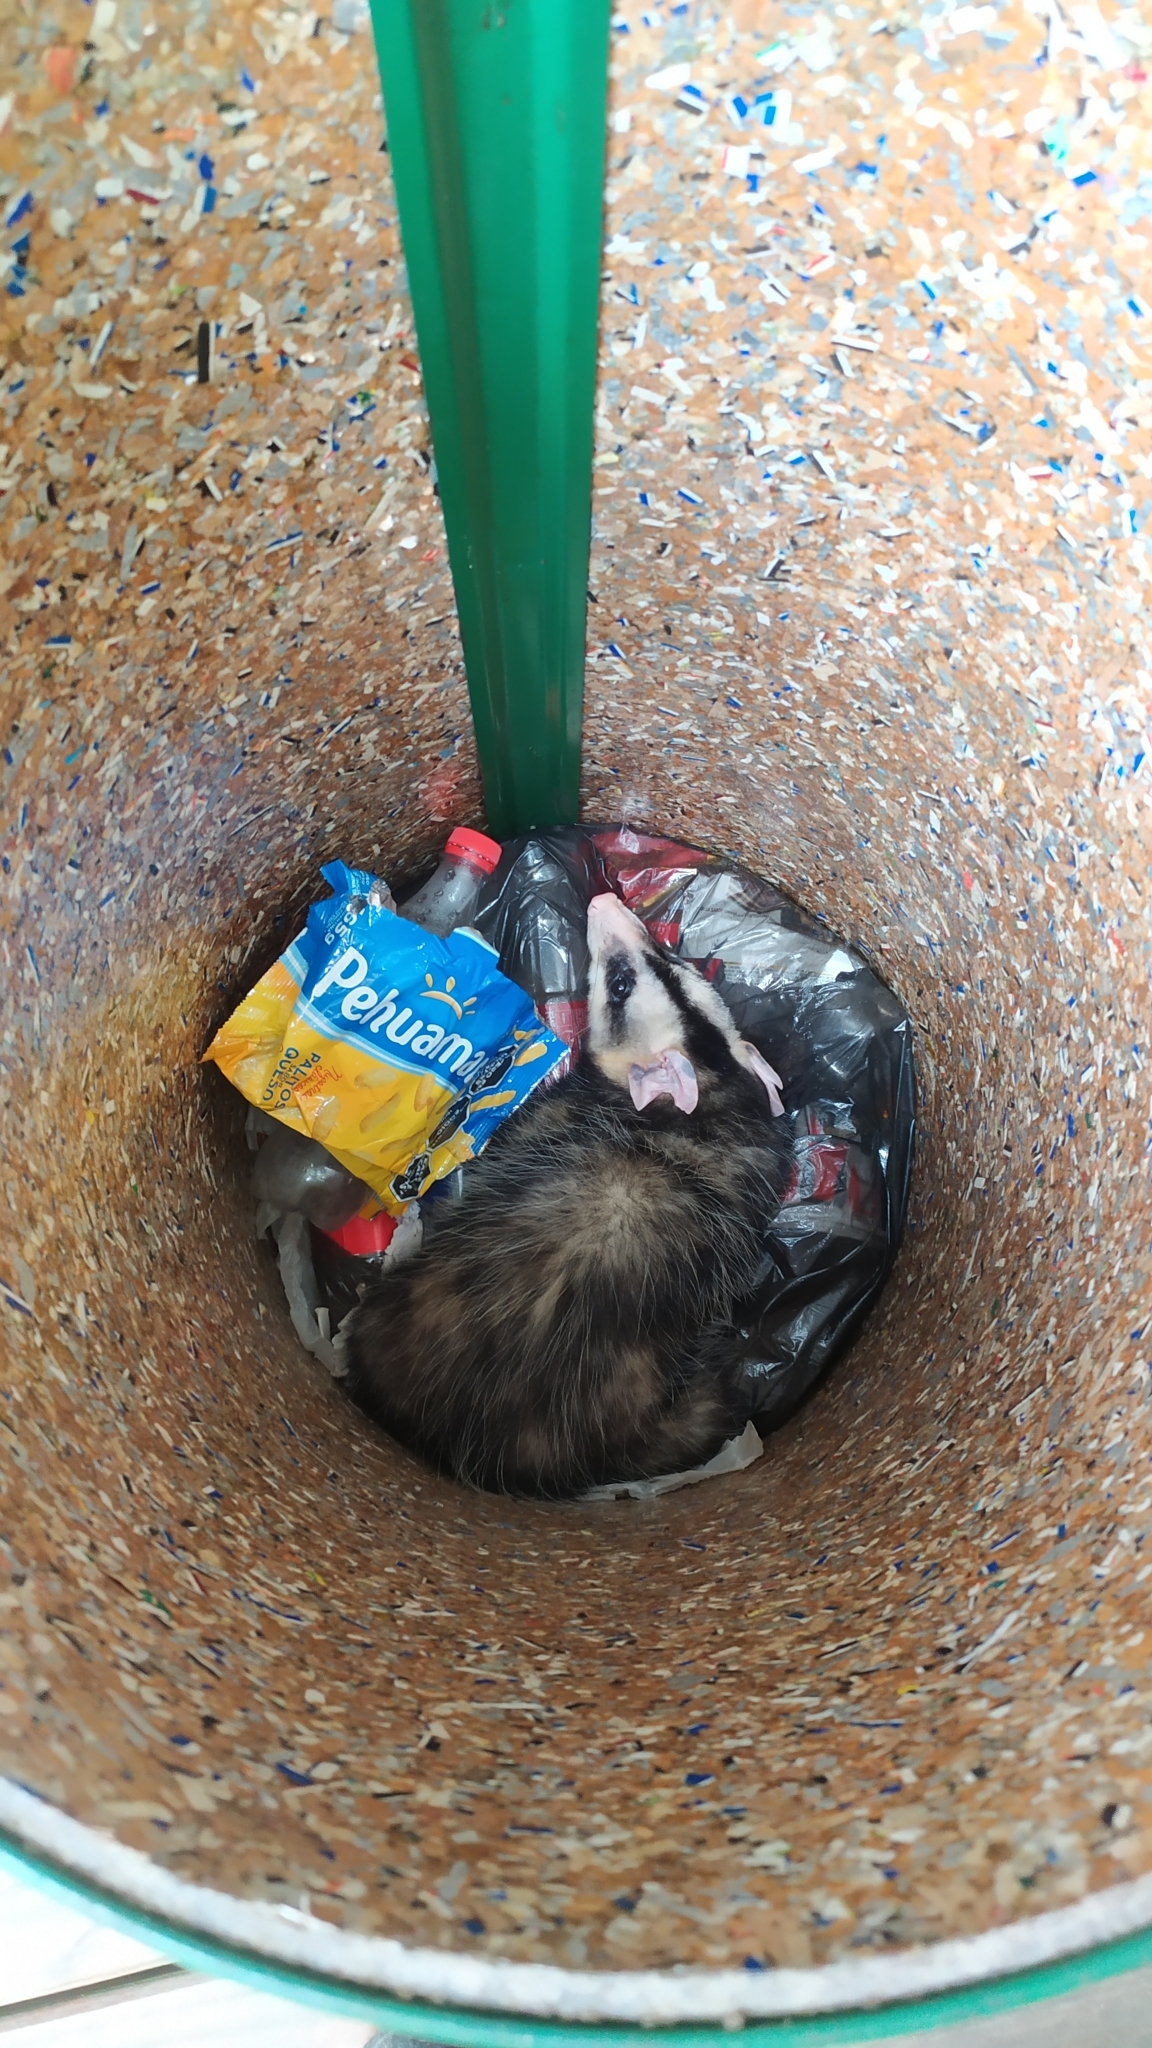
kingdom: Animalia
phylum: Chordata
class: Mammalia
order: Didelphimorphia
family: Didelphidae
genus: Didelphis
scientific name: Didelphis albiventris
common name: White-eared opossum
